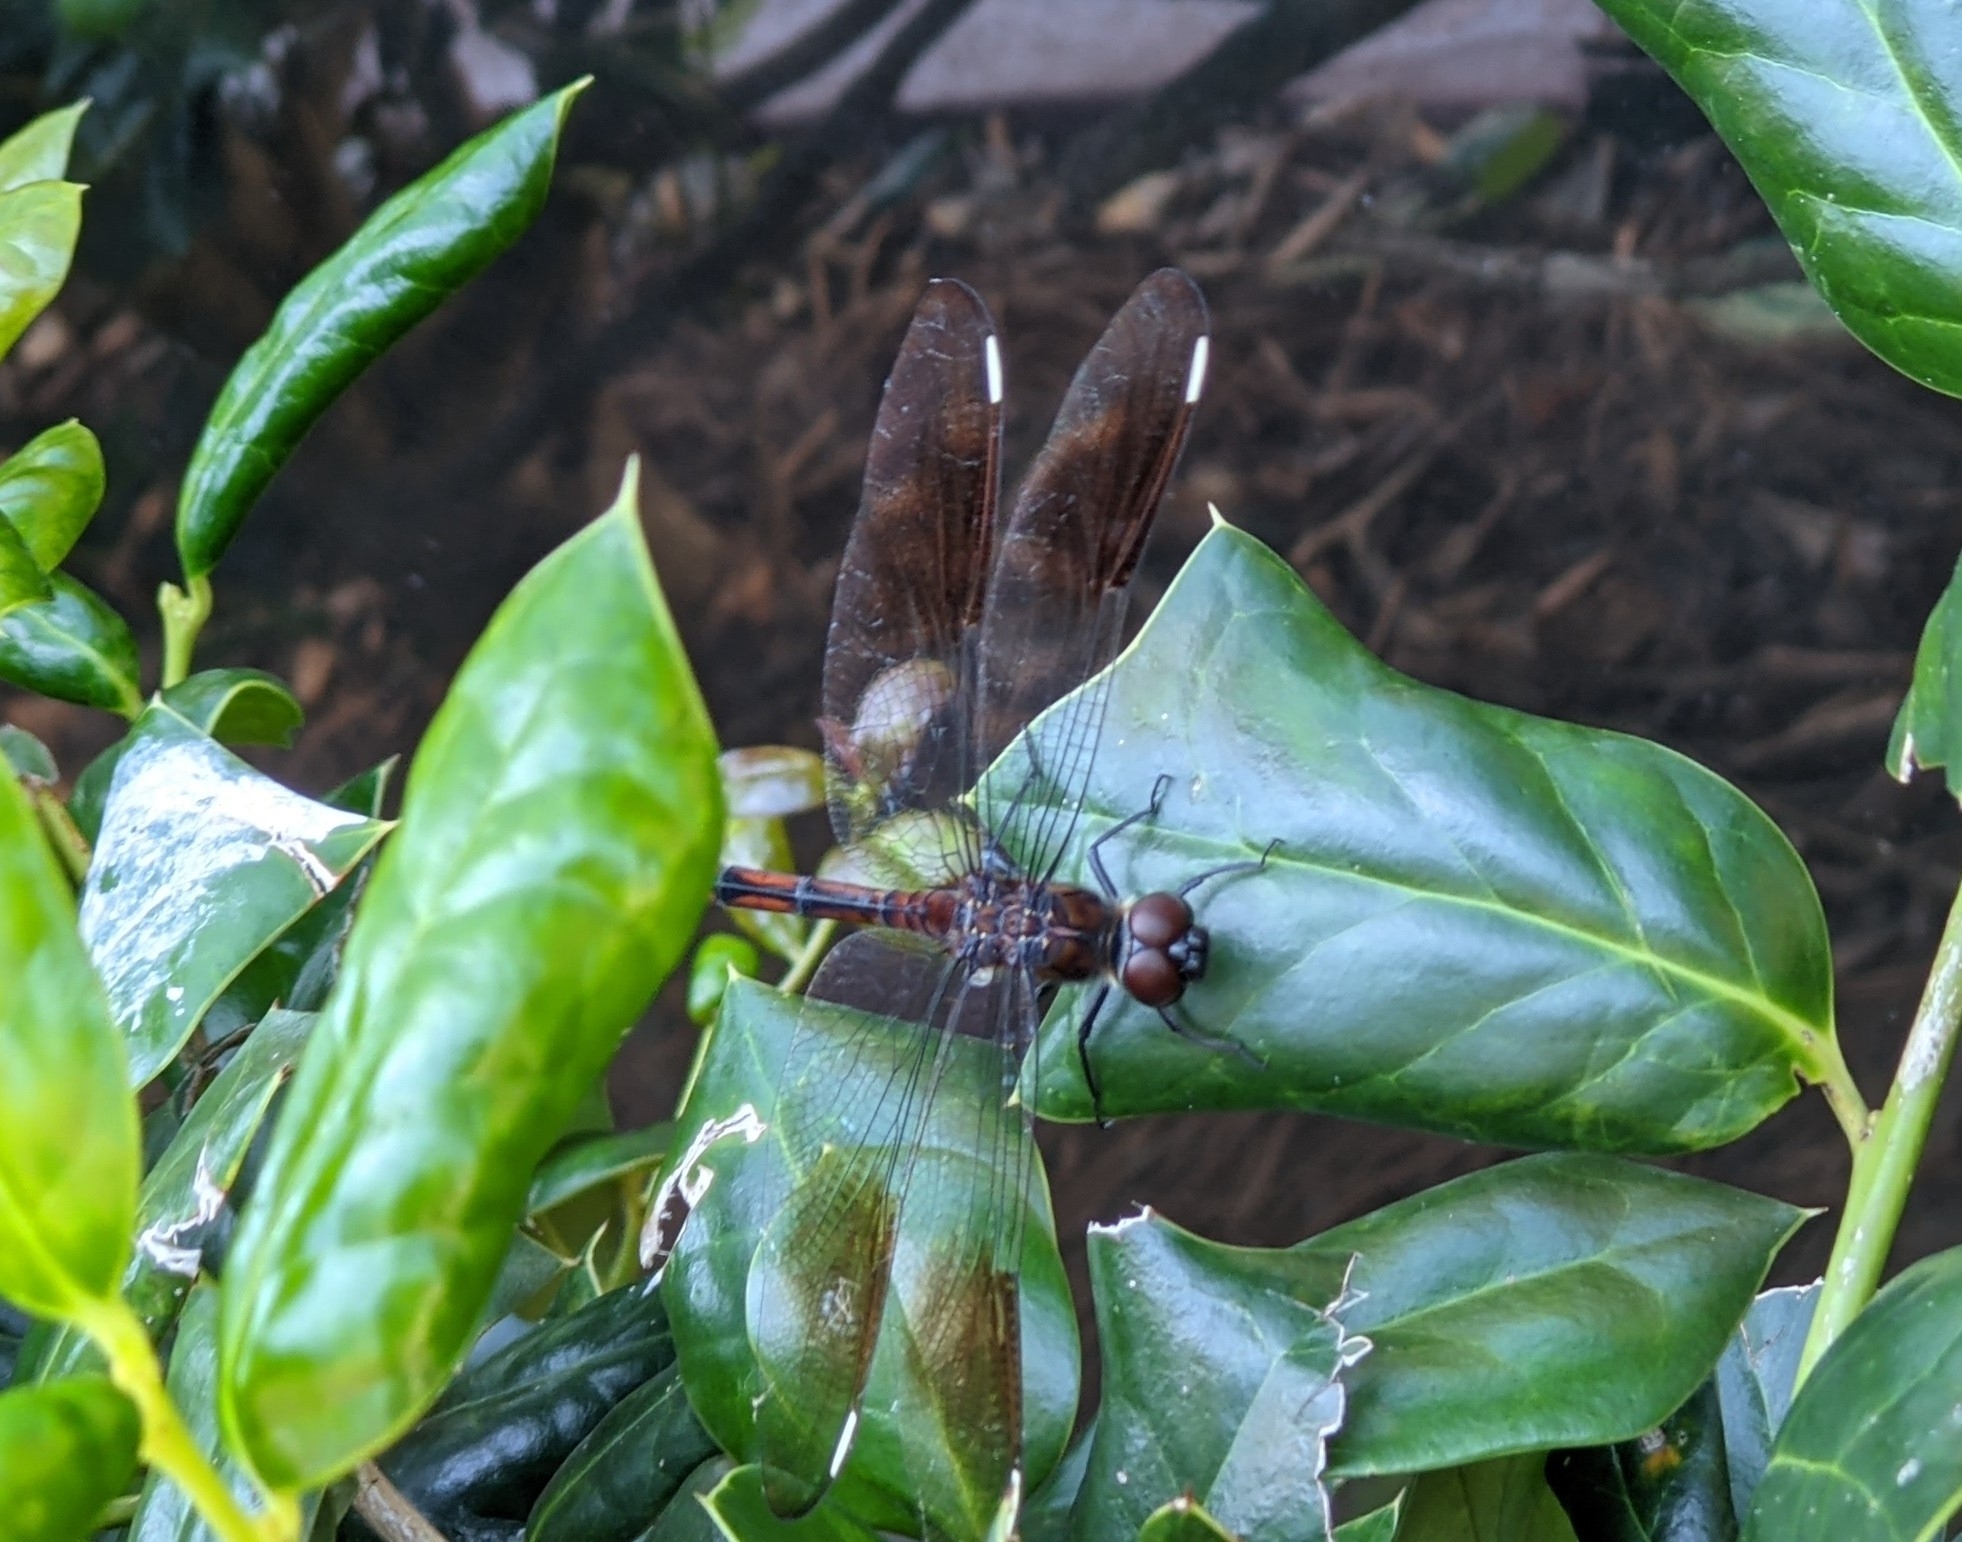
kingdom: Animalia
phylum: Arthropoda
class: Insecta
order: Odonata
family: Libellulidae
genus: Brachymesia
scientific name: Brachymesia gravida
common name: Four-spotted pennant
